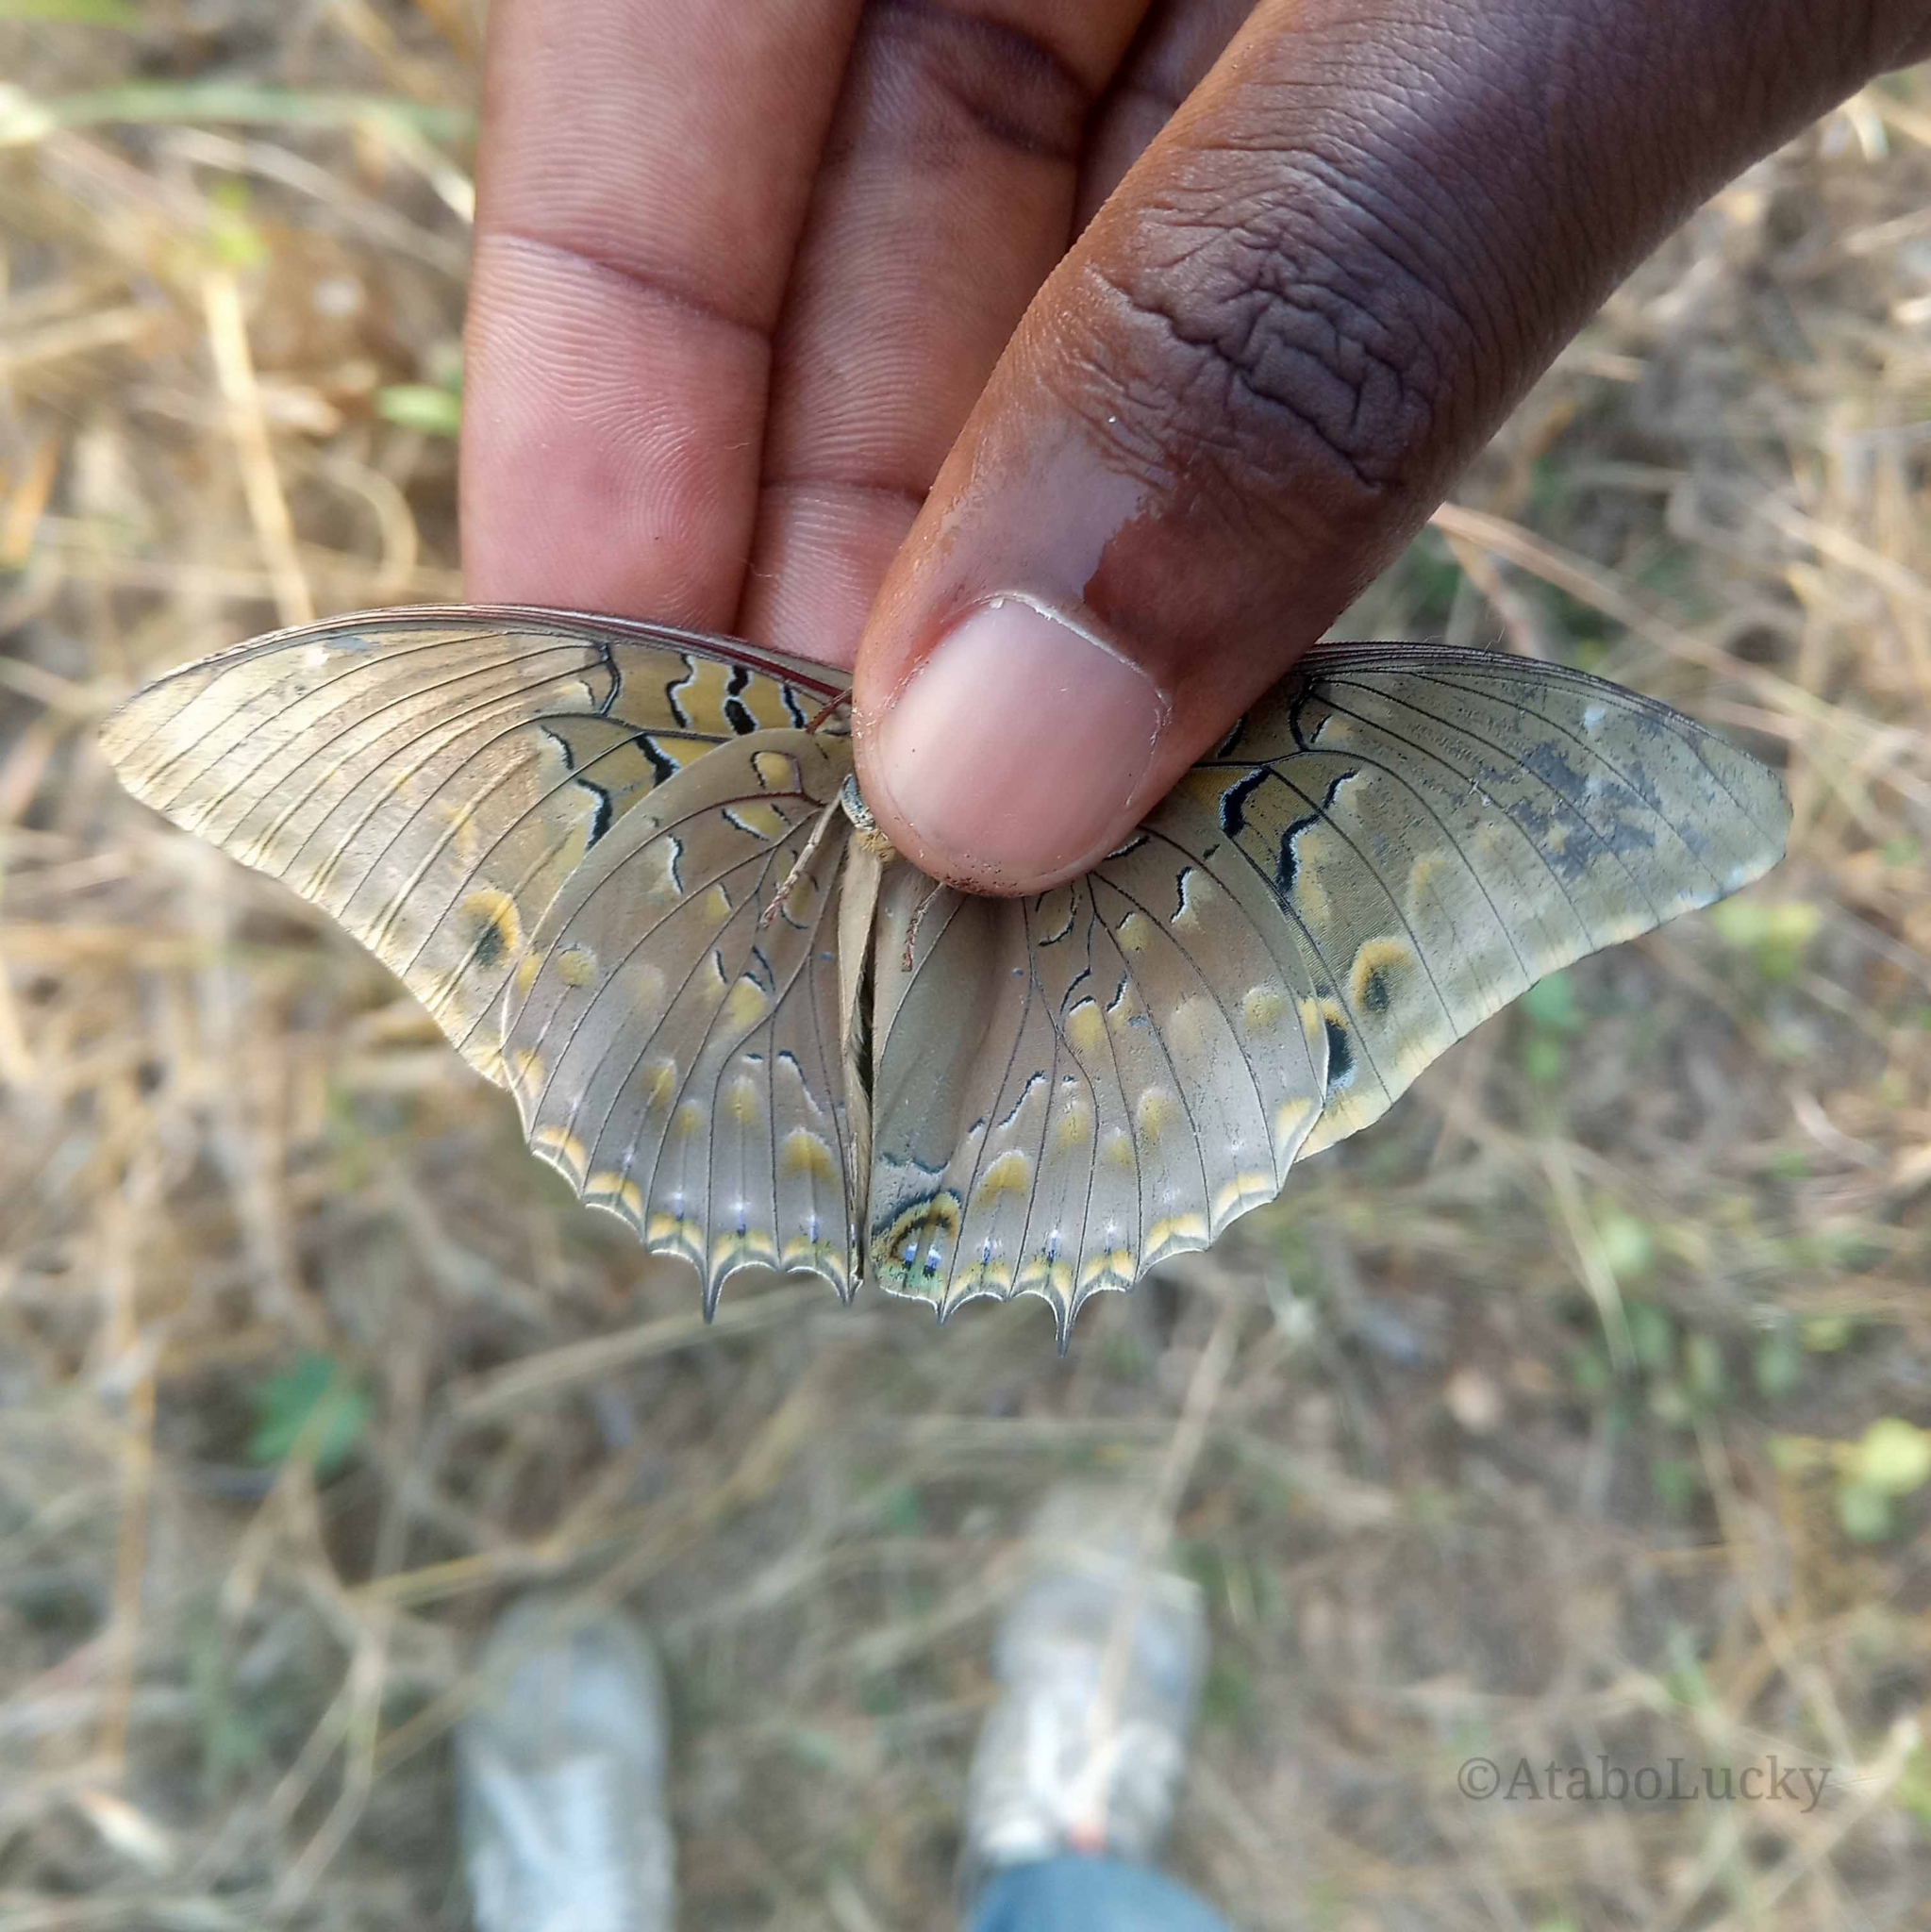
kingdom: Animalia
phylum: Arthropoda
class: Insecta
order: Lepidoptera
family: Nymphalidae
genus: Charaxes
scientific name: Charaxes tiridates
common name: Common blue charaxes
